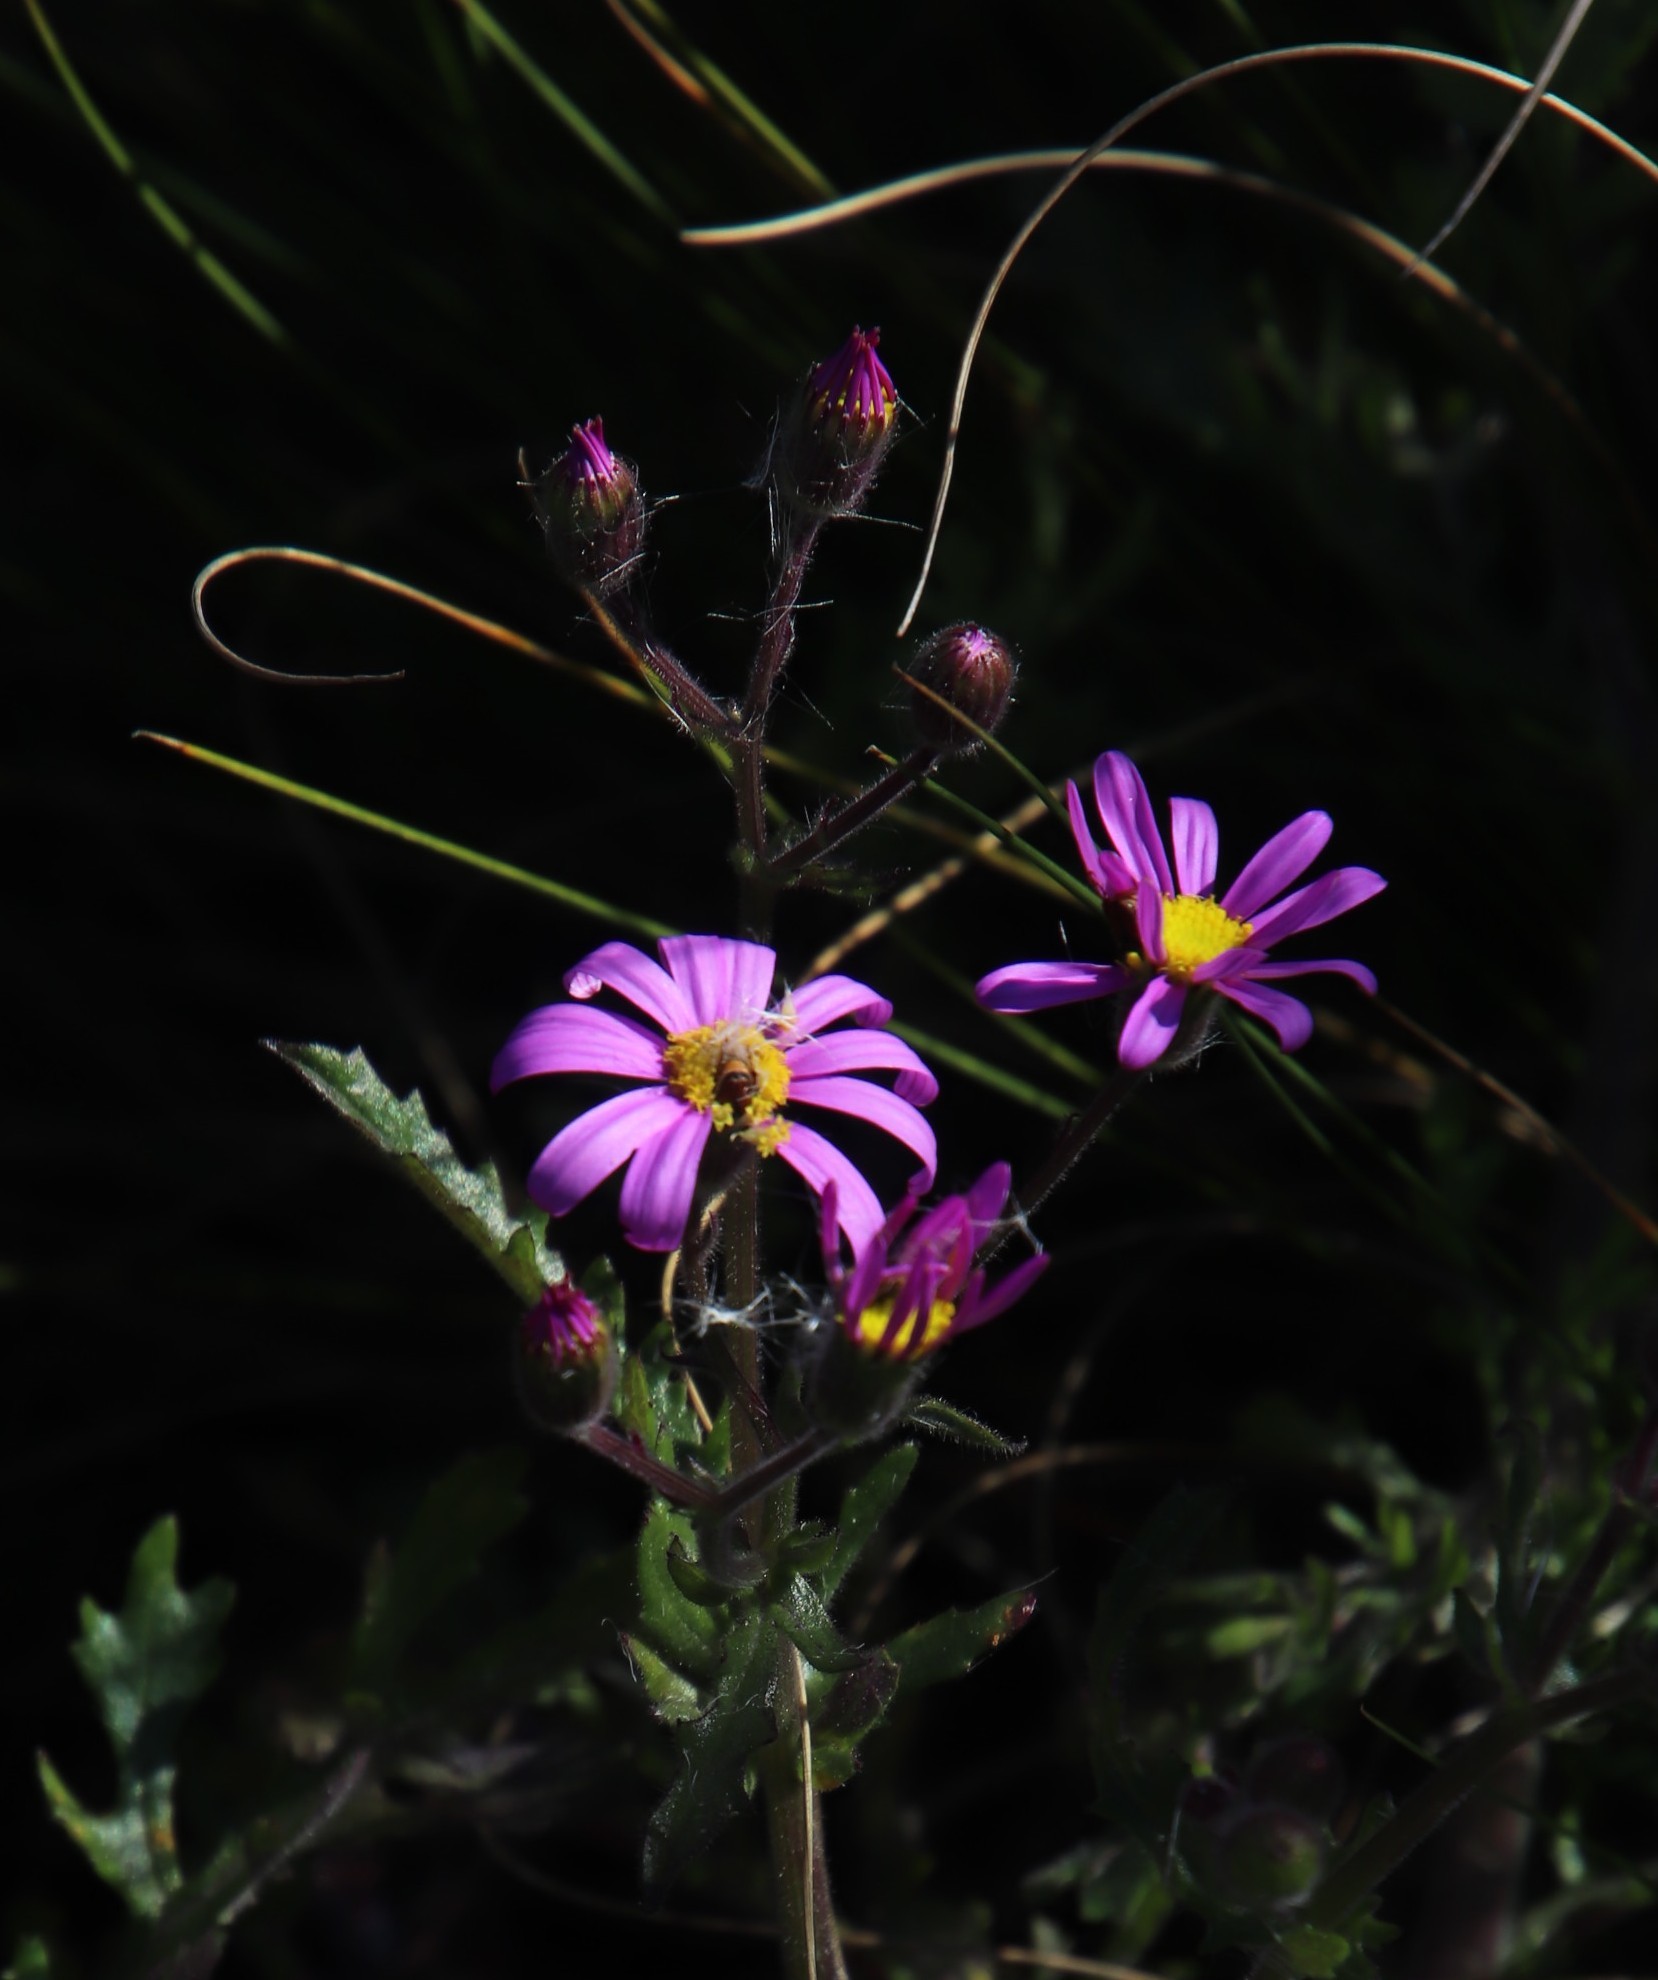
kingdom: Plantae
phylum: Tracheophyta
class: Magnoliopsida
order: Asterales
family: Asteraceae
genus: Senecio
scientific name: Senecio arenarius
